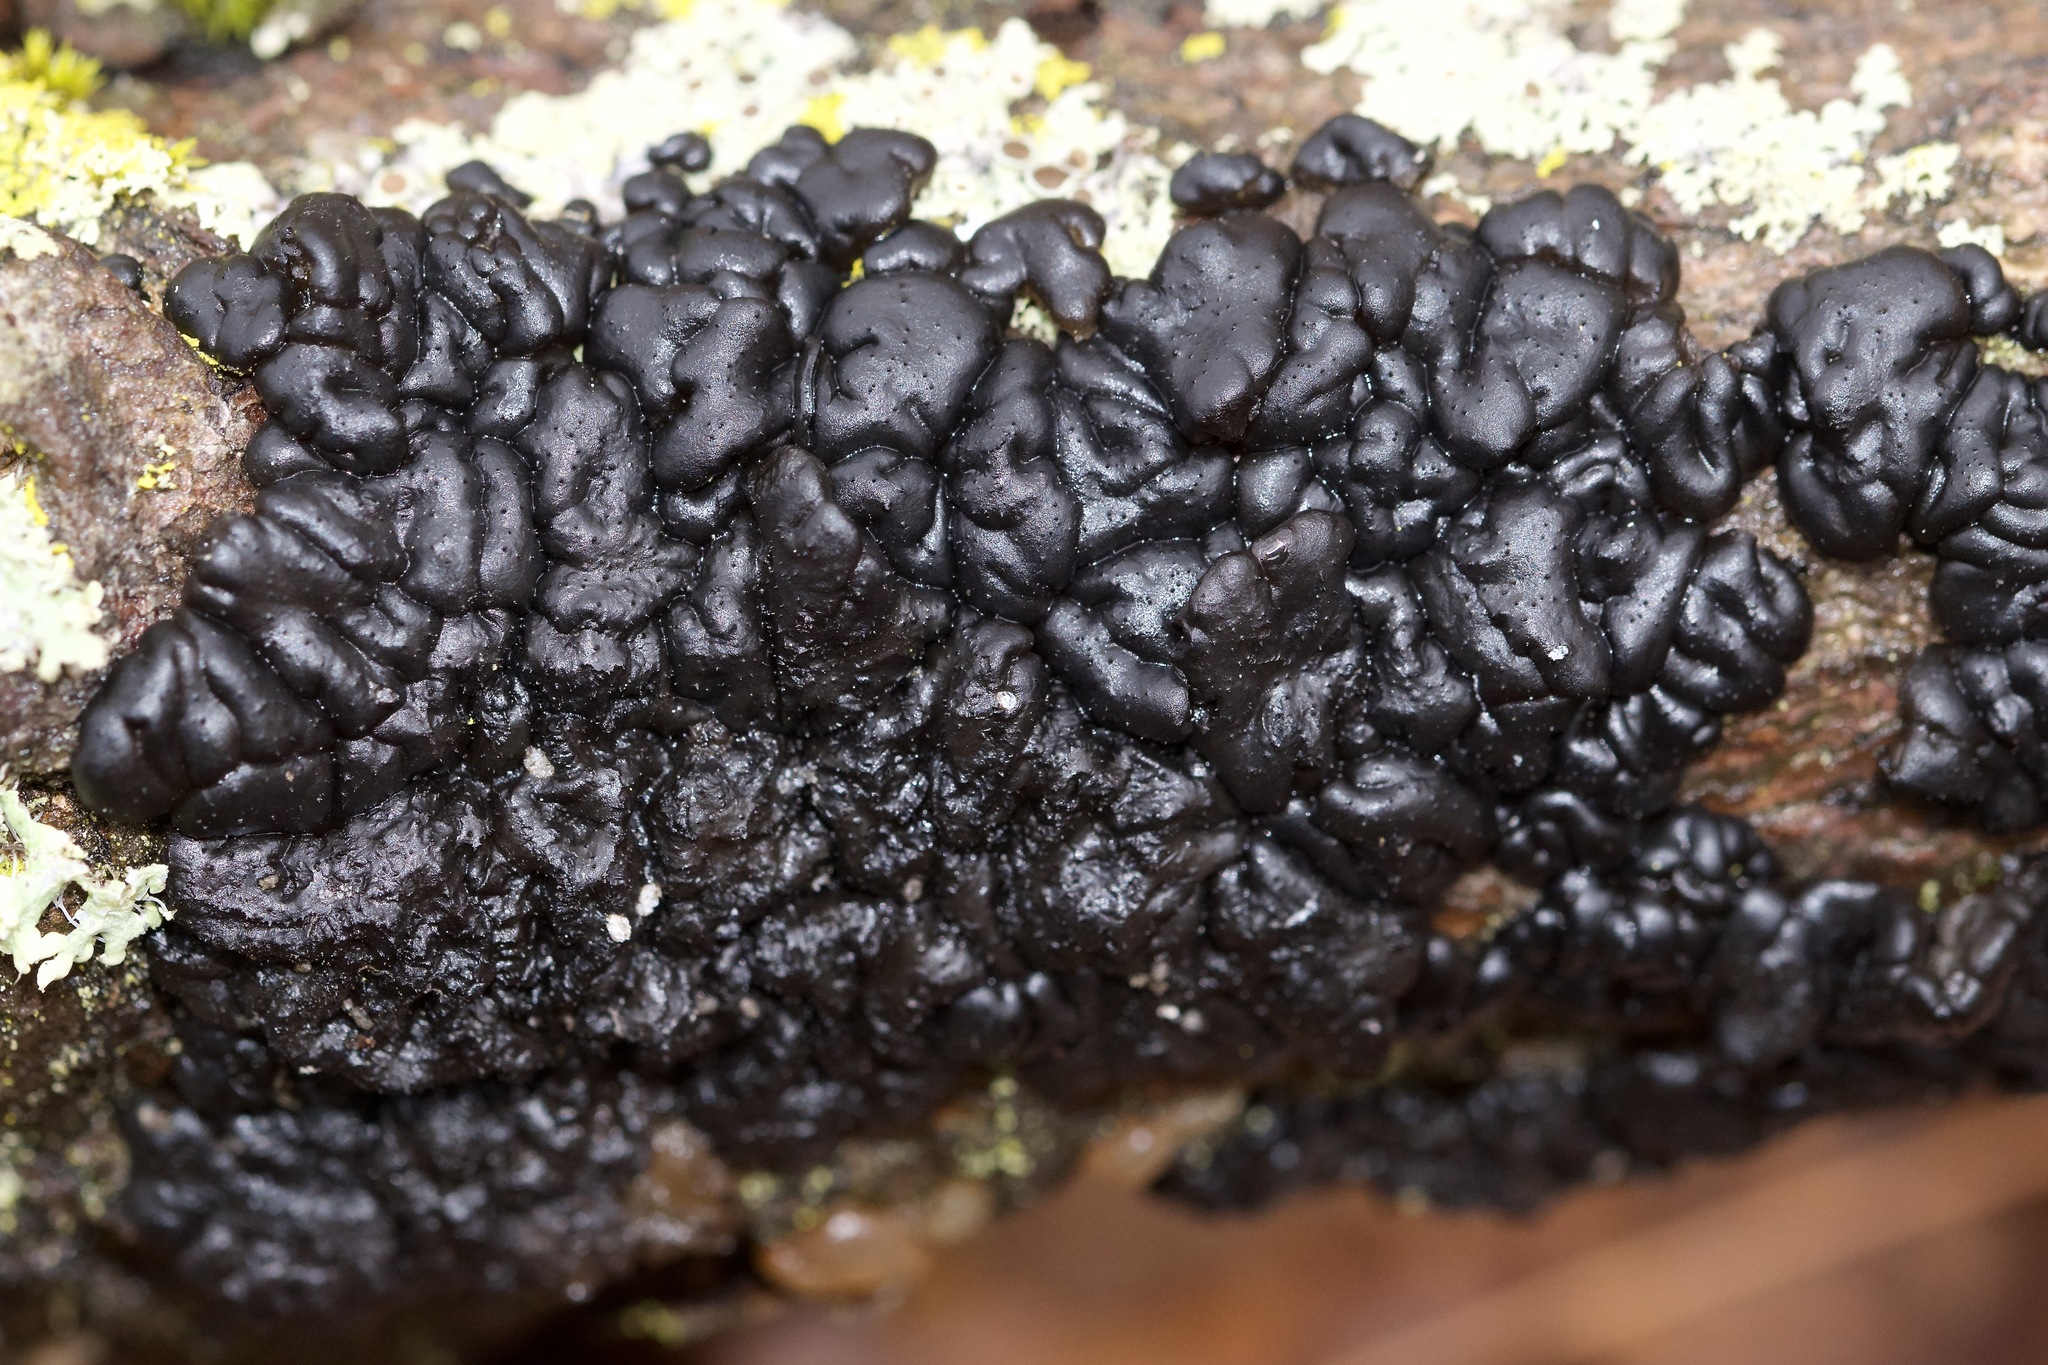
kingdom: Fungi
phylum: Basidiomycota
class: Agaricomycetes
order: Auriculariales
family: Auriculariaceae
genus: Exidia
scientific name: Exidia glandulosa
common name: Witches' butter
